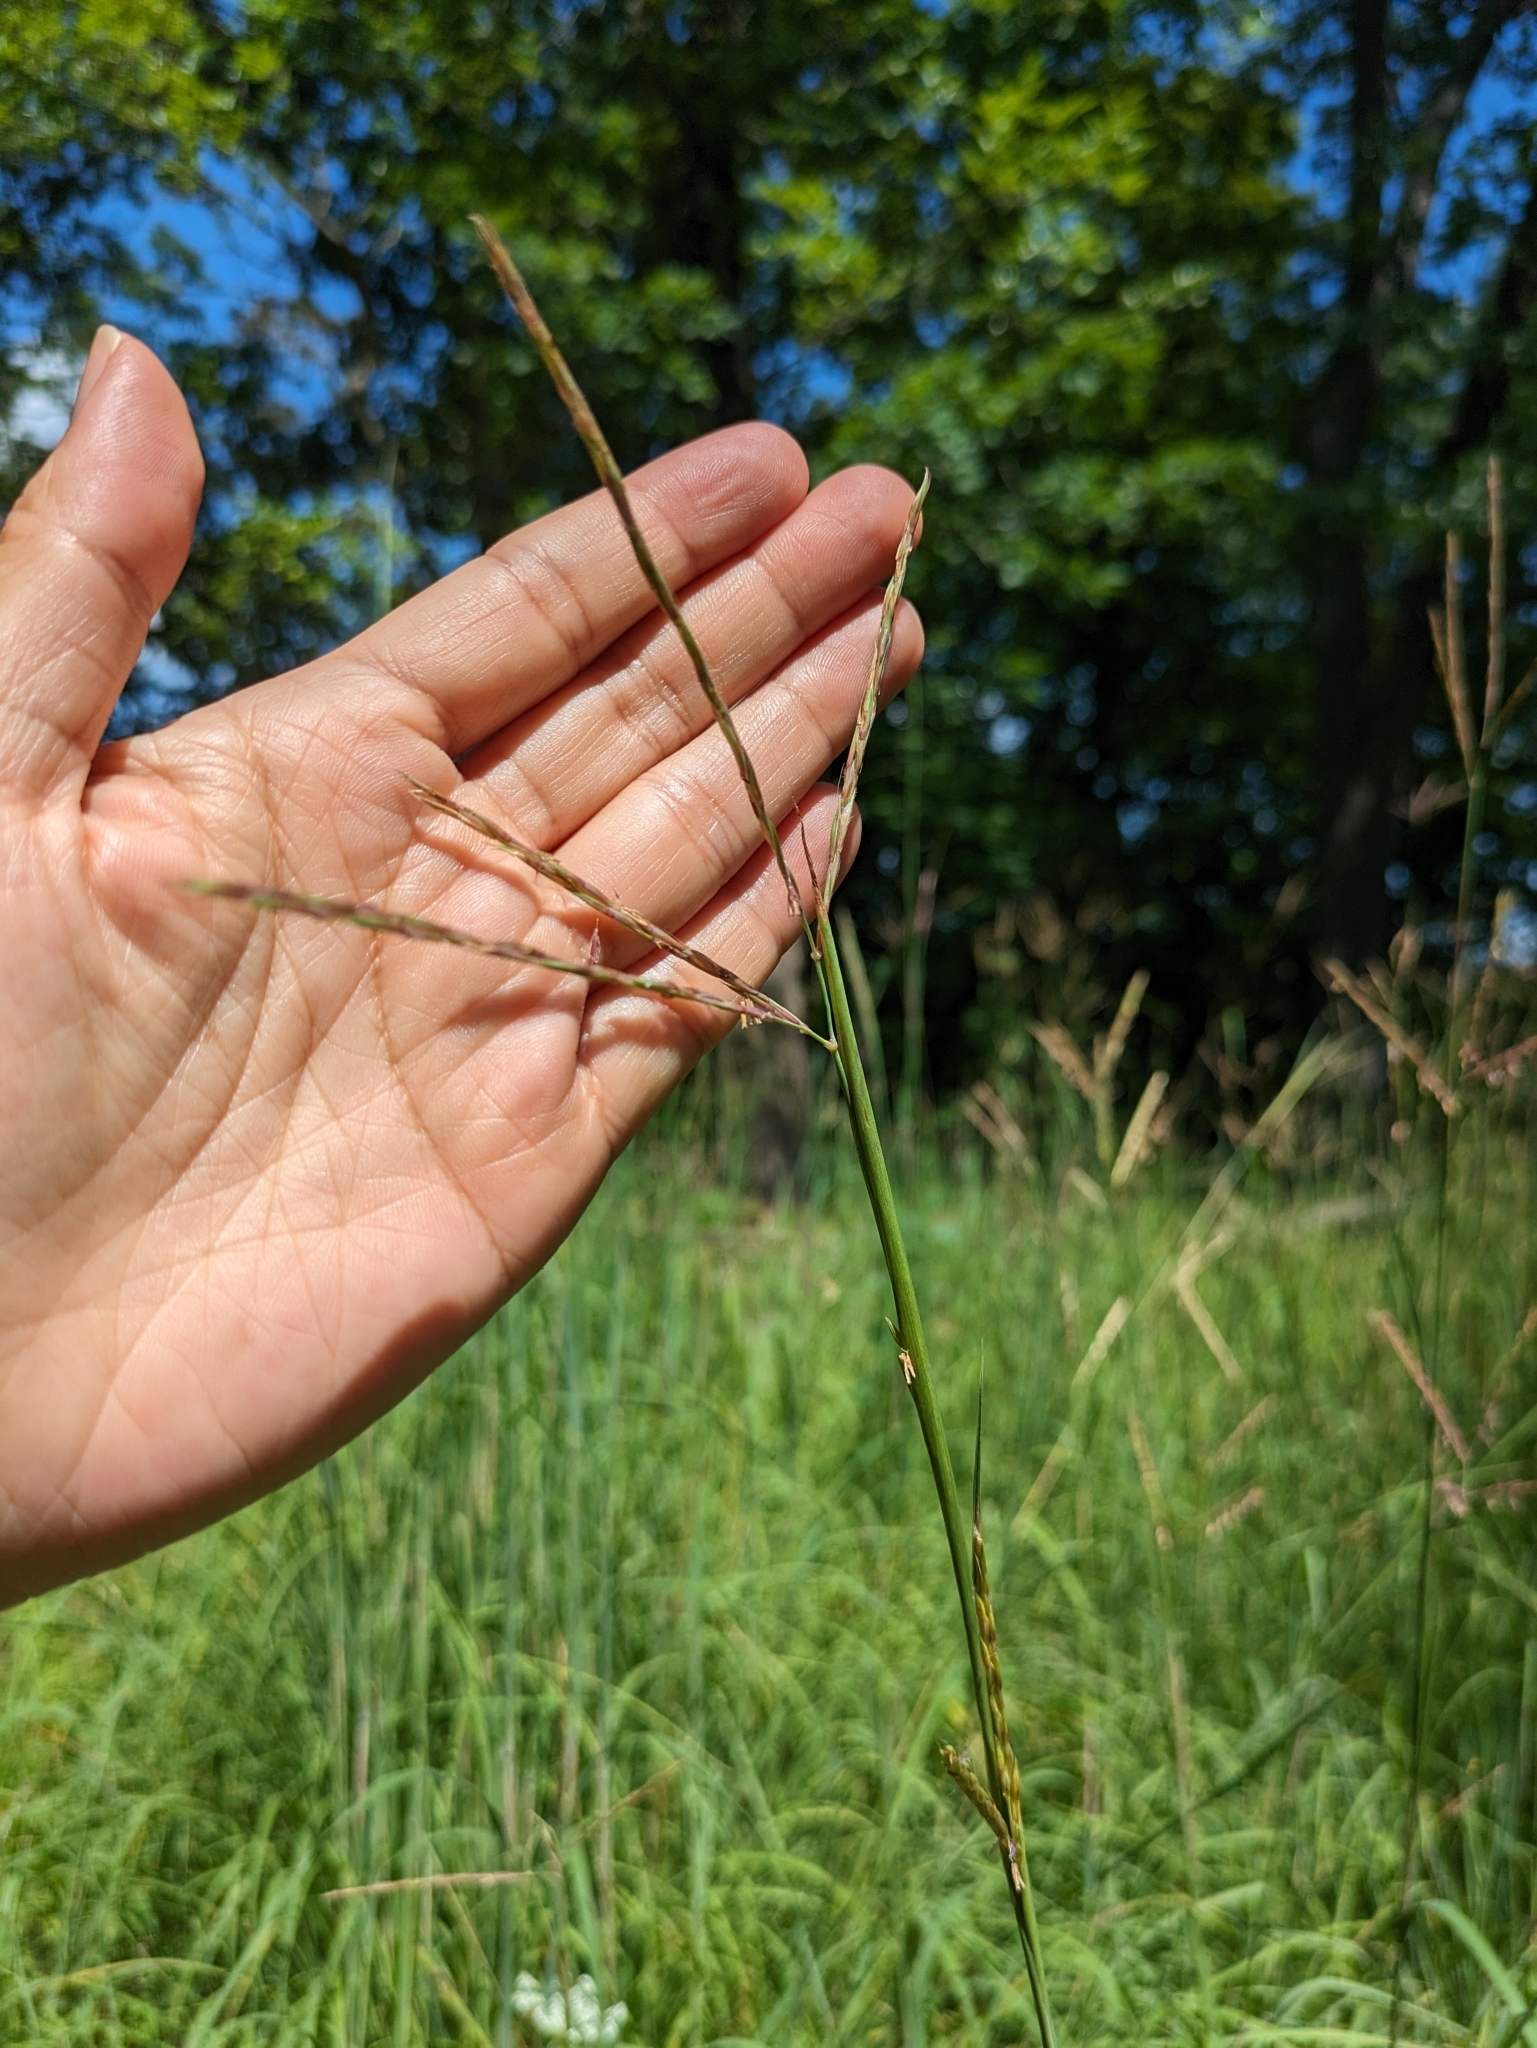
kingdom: Plantae
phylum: Tracheophyta
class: Liliopsida
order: Poales
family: Poaceae
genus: Andropogon
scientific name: Andropogon gerardi
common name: Big bluestem
